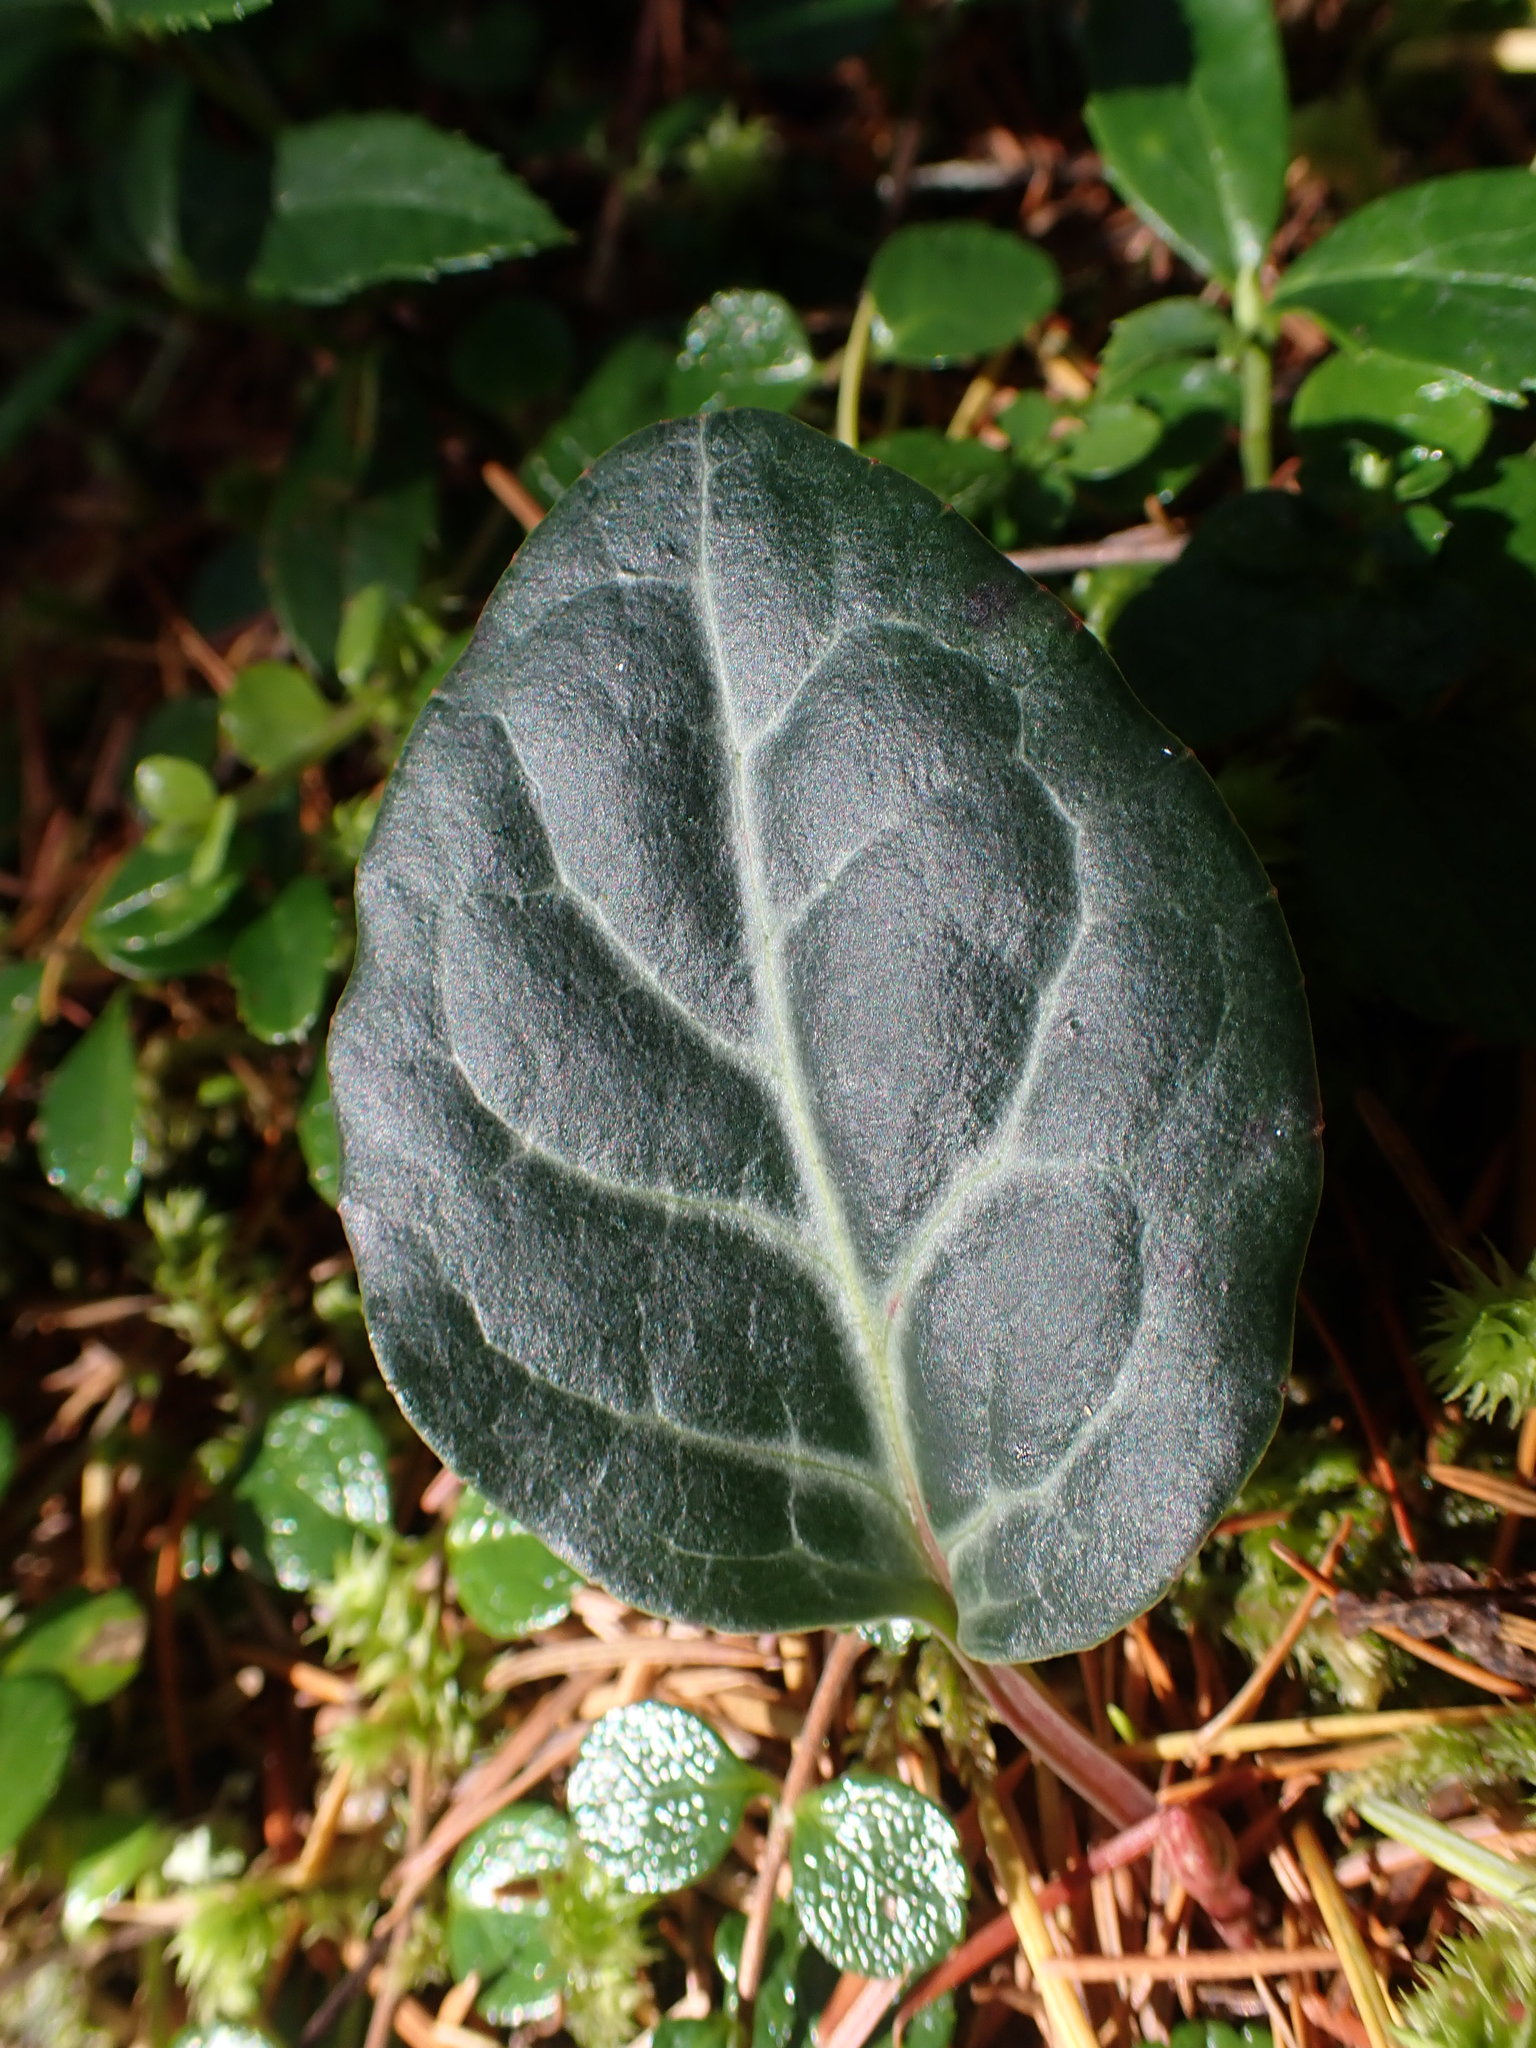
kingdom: Plantae
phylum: Tracheophyta
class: Magnoliopsida
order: Ericales
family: Ericaceae
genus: Pyrola
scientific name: Pyrola picta
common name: White-vein wintergreen
